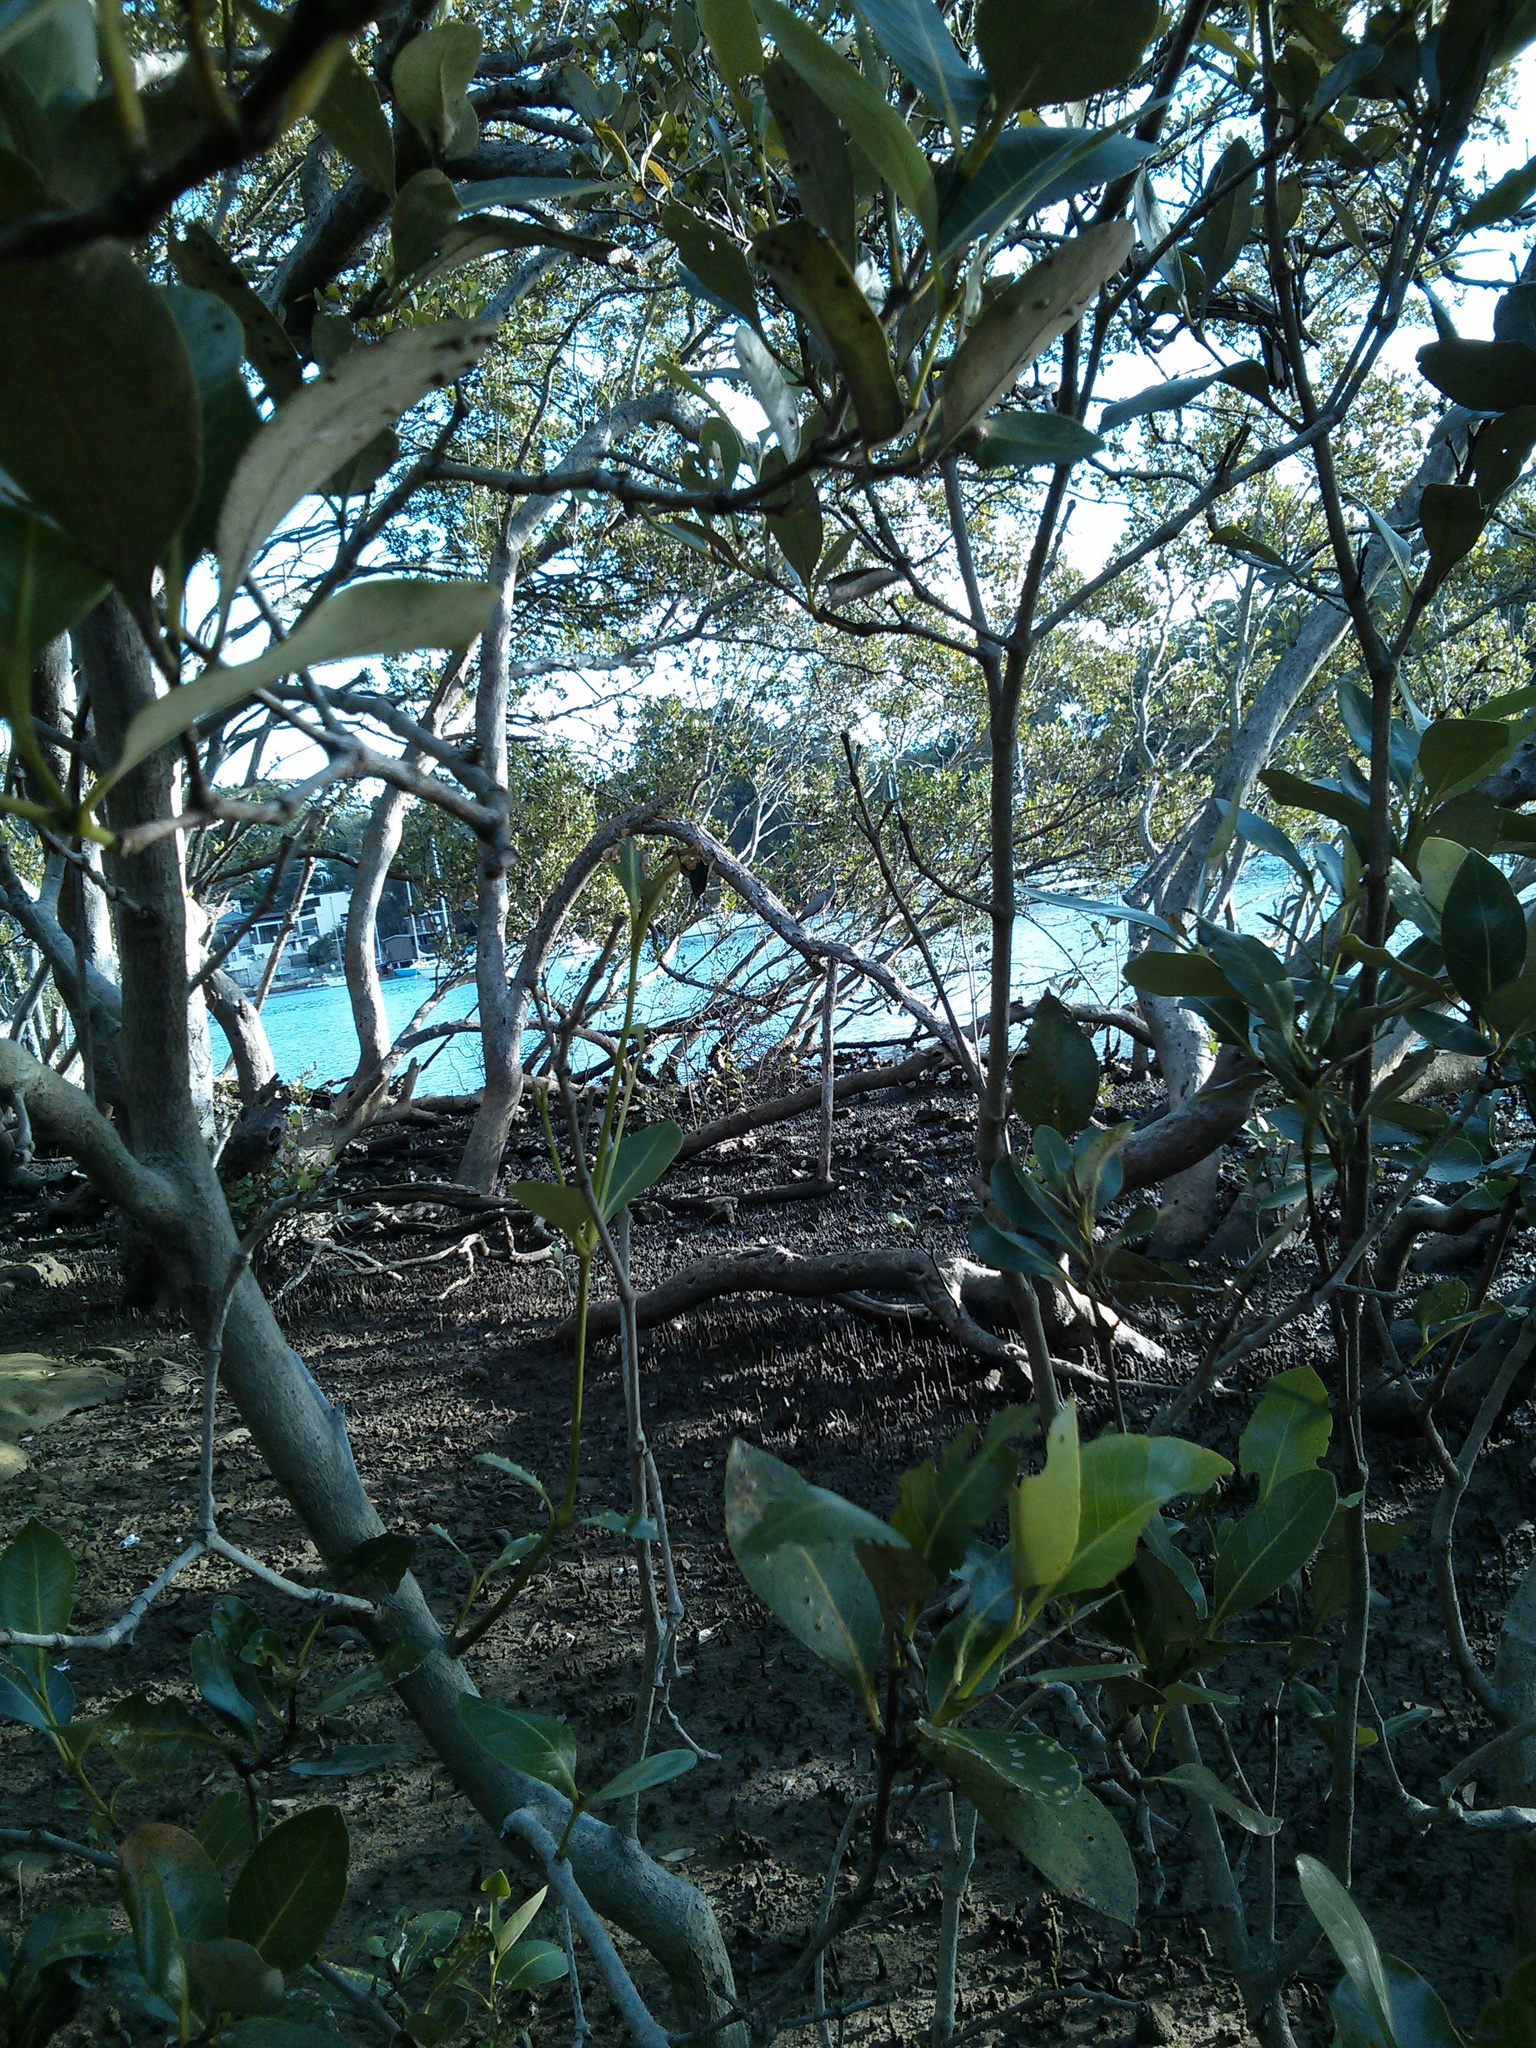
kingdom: Animalia
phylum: Chordata
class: Aves
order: Pelecaniformes
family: Ardeidae
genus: Egretta
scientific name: Egretta novaehollandiae
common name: White-faced heron
